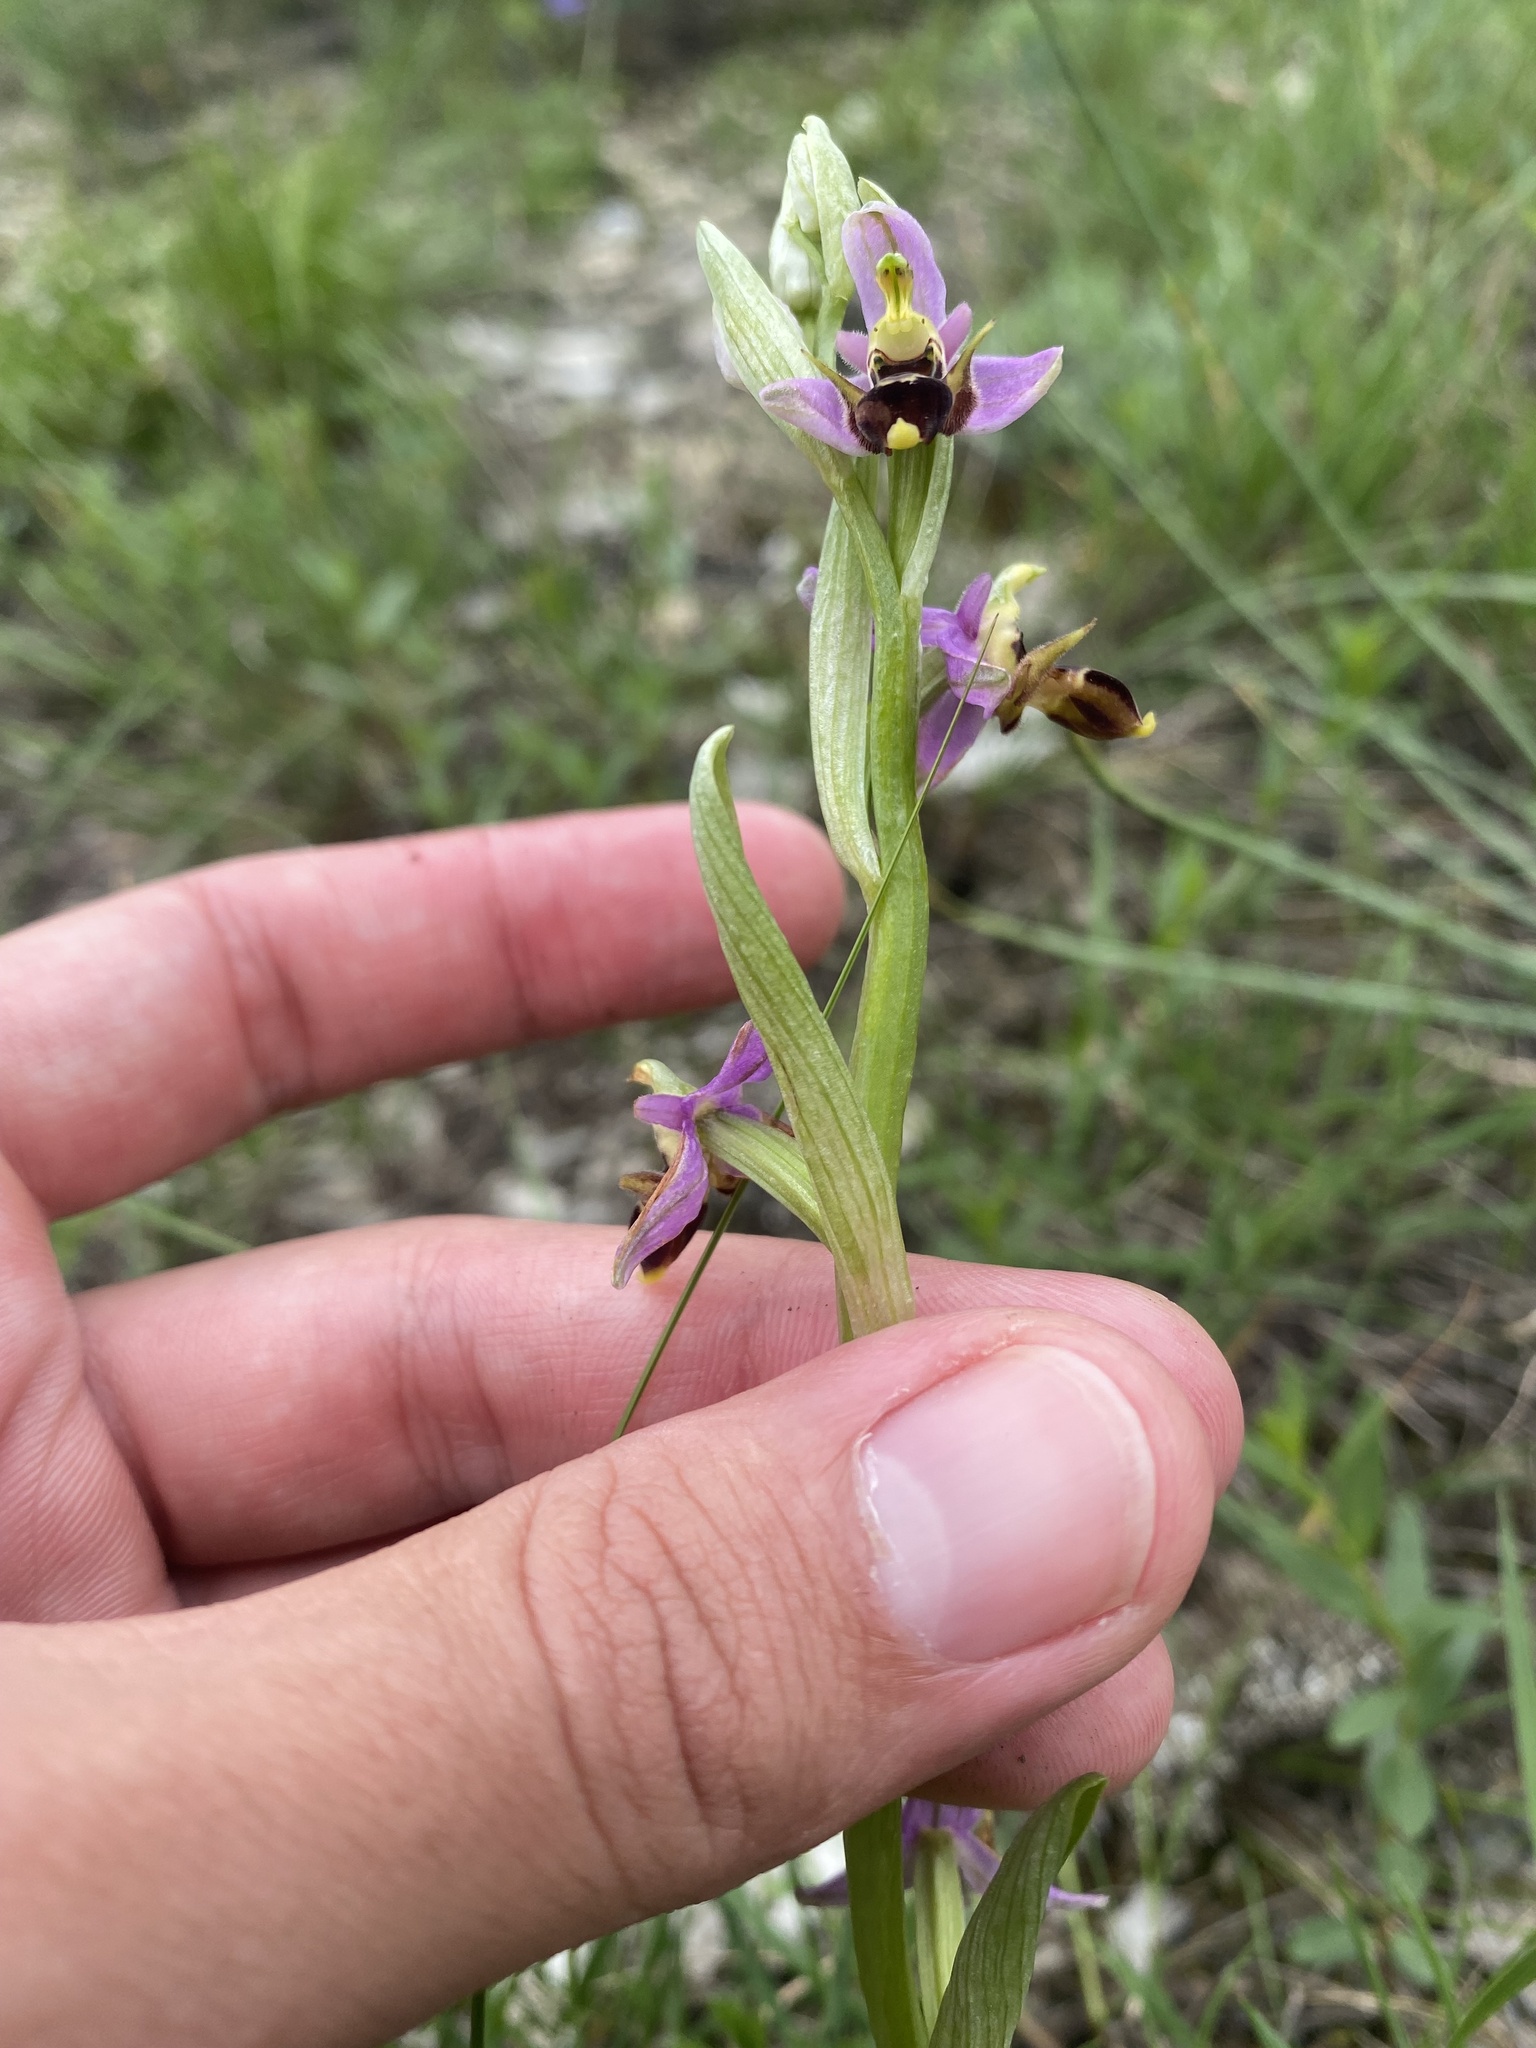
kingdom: Plantae
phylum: Tracheophyta
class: Liliopsida
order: Asparagales
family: Orchidaceae
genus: Ophrys
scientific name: Ophrys
